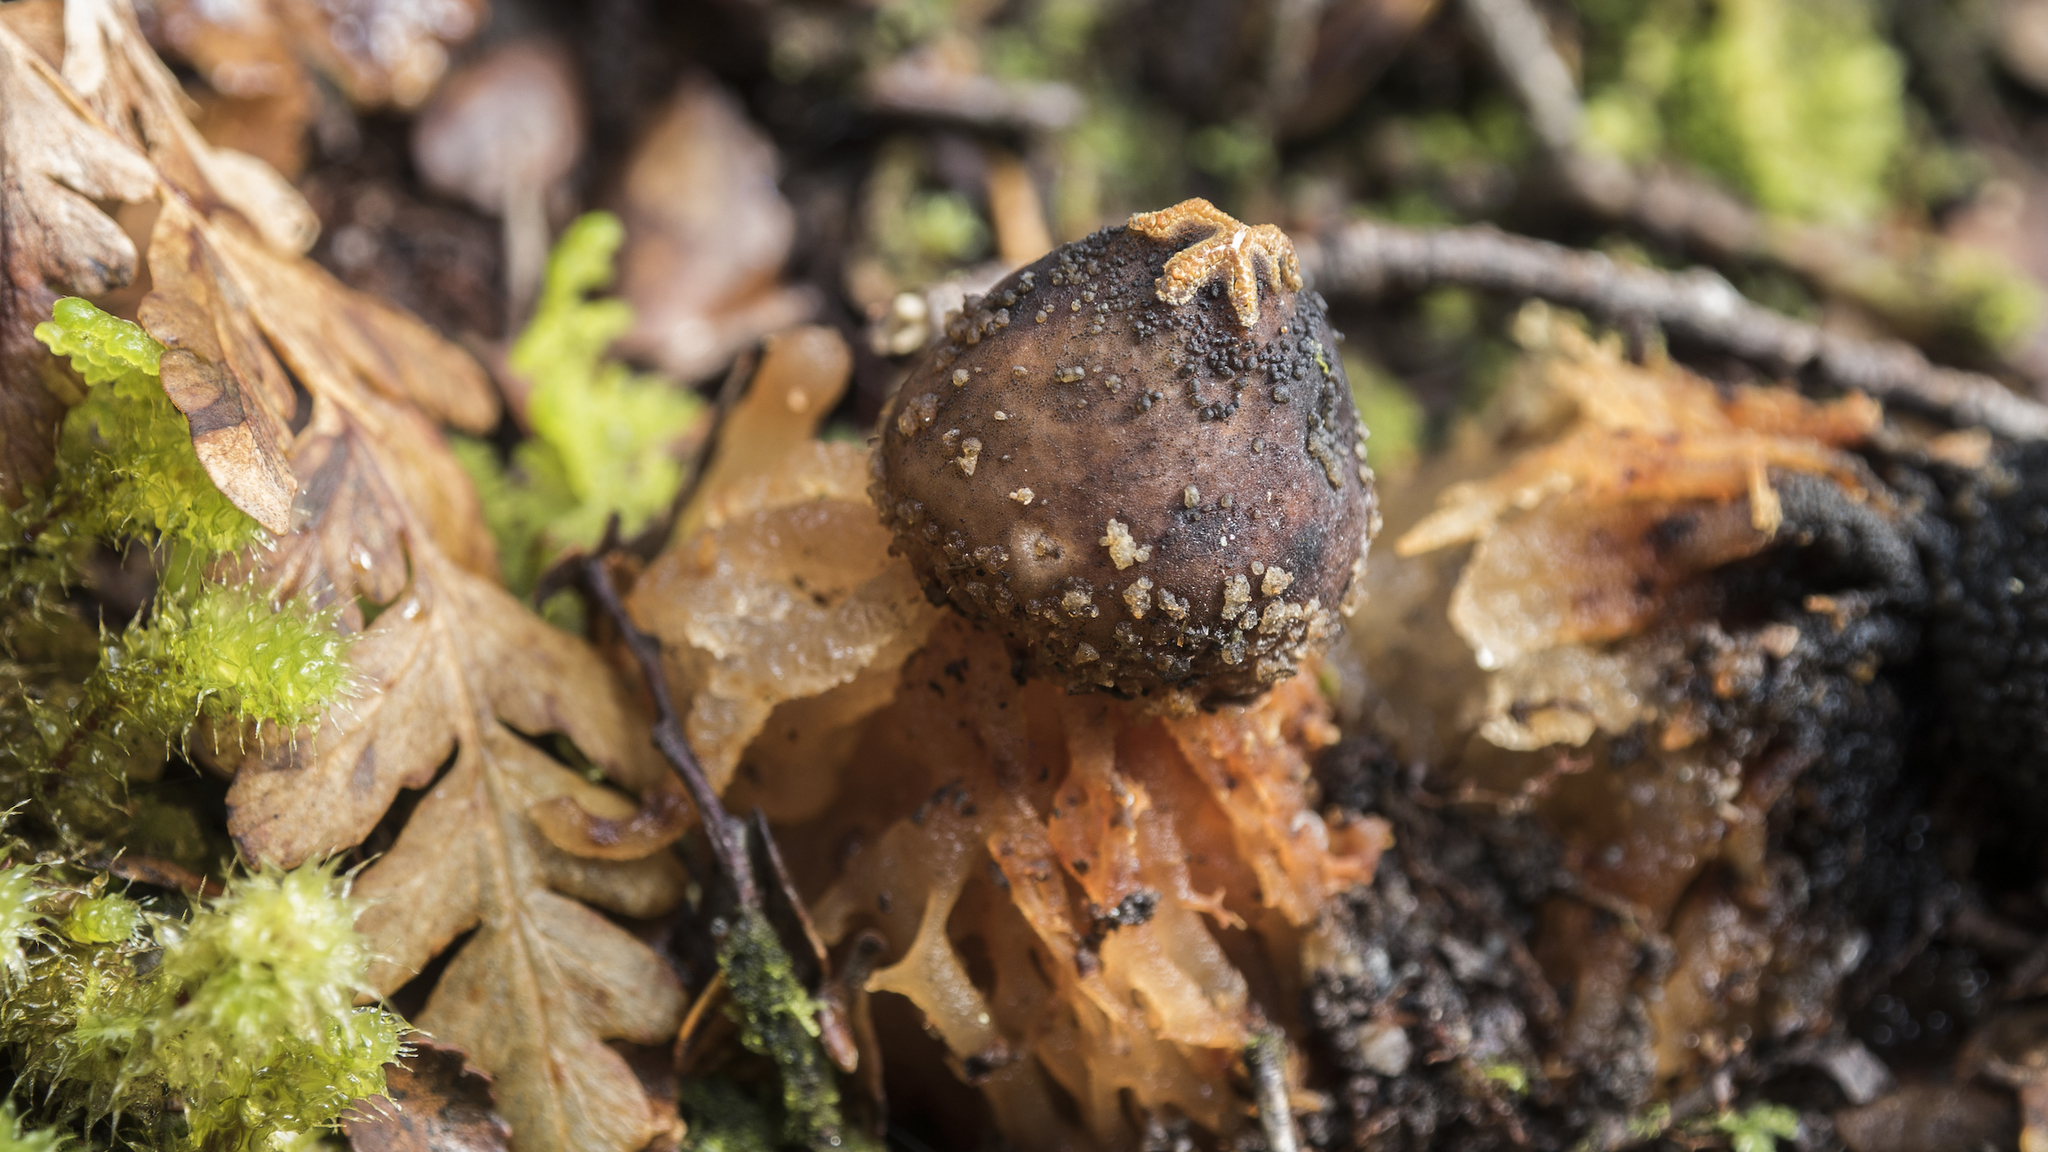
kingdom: Fungi
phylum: Basidiomycota
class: Agaricomycetes
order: Boletales
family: Calostomataceae
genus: Calostoma
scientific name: Calostoma rodwayi
